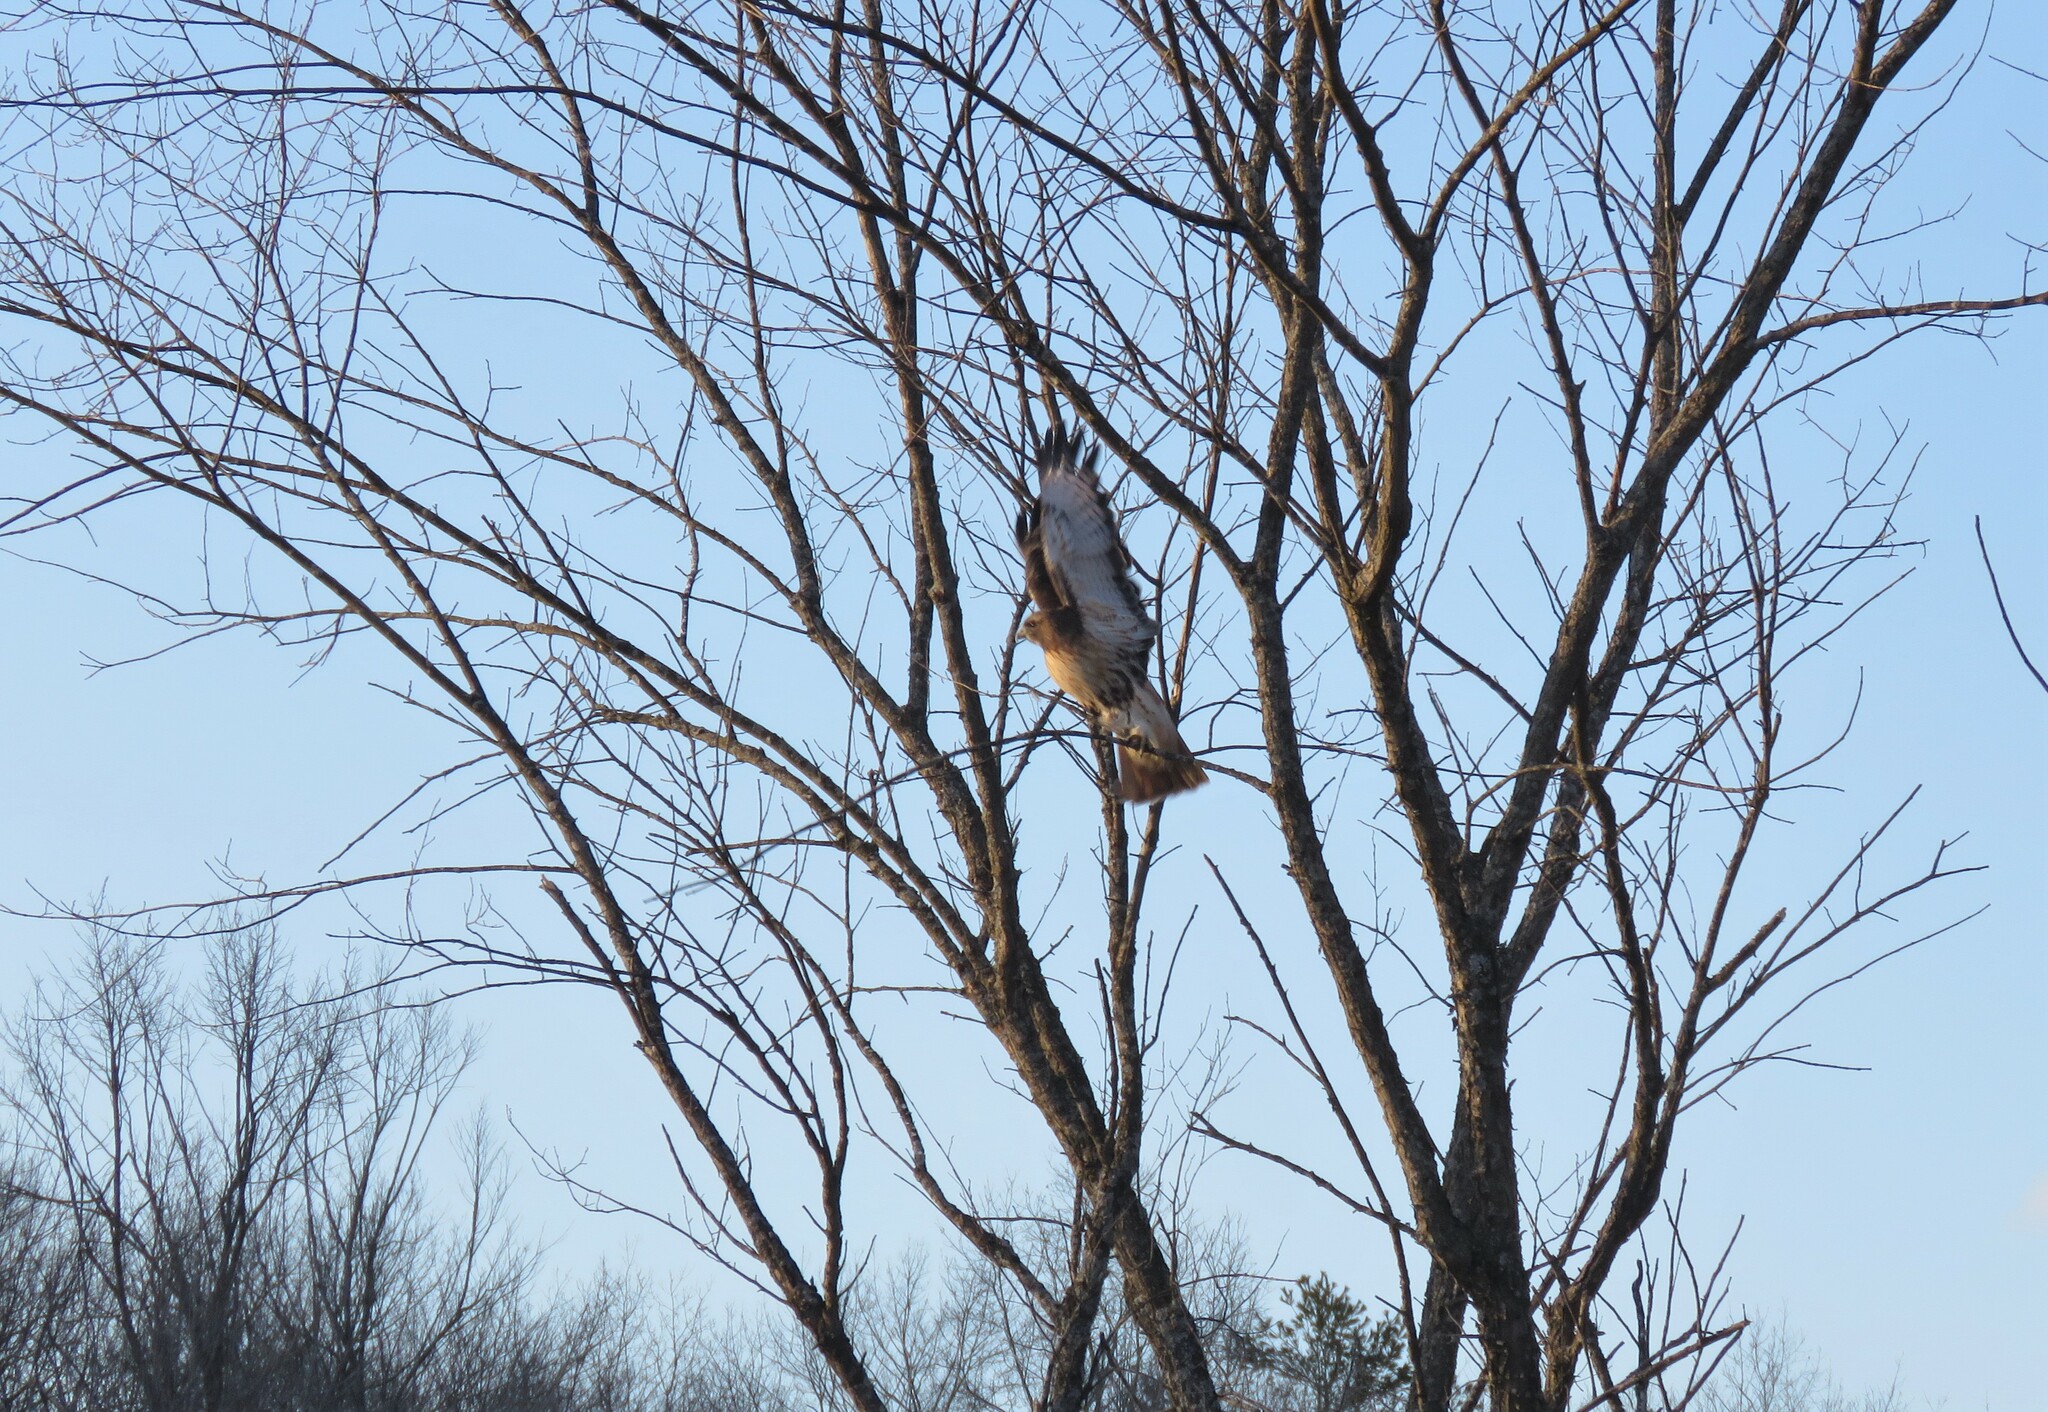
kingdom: Animalia
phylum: Chordata
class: Aves
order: Accipitriformes
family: Accipitridae
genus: Buteo
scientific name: Buteo jamaicensis
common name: Red-tailed hawk
